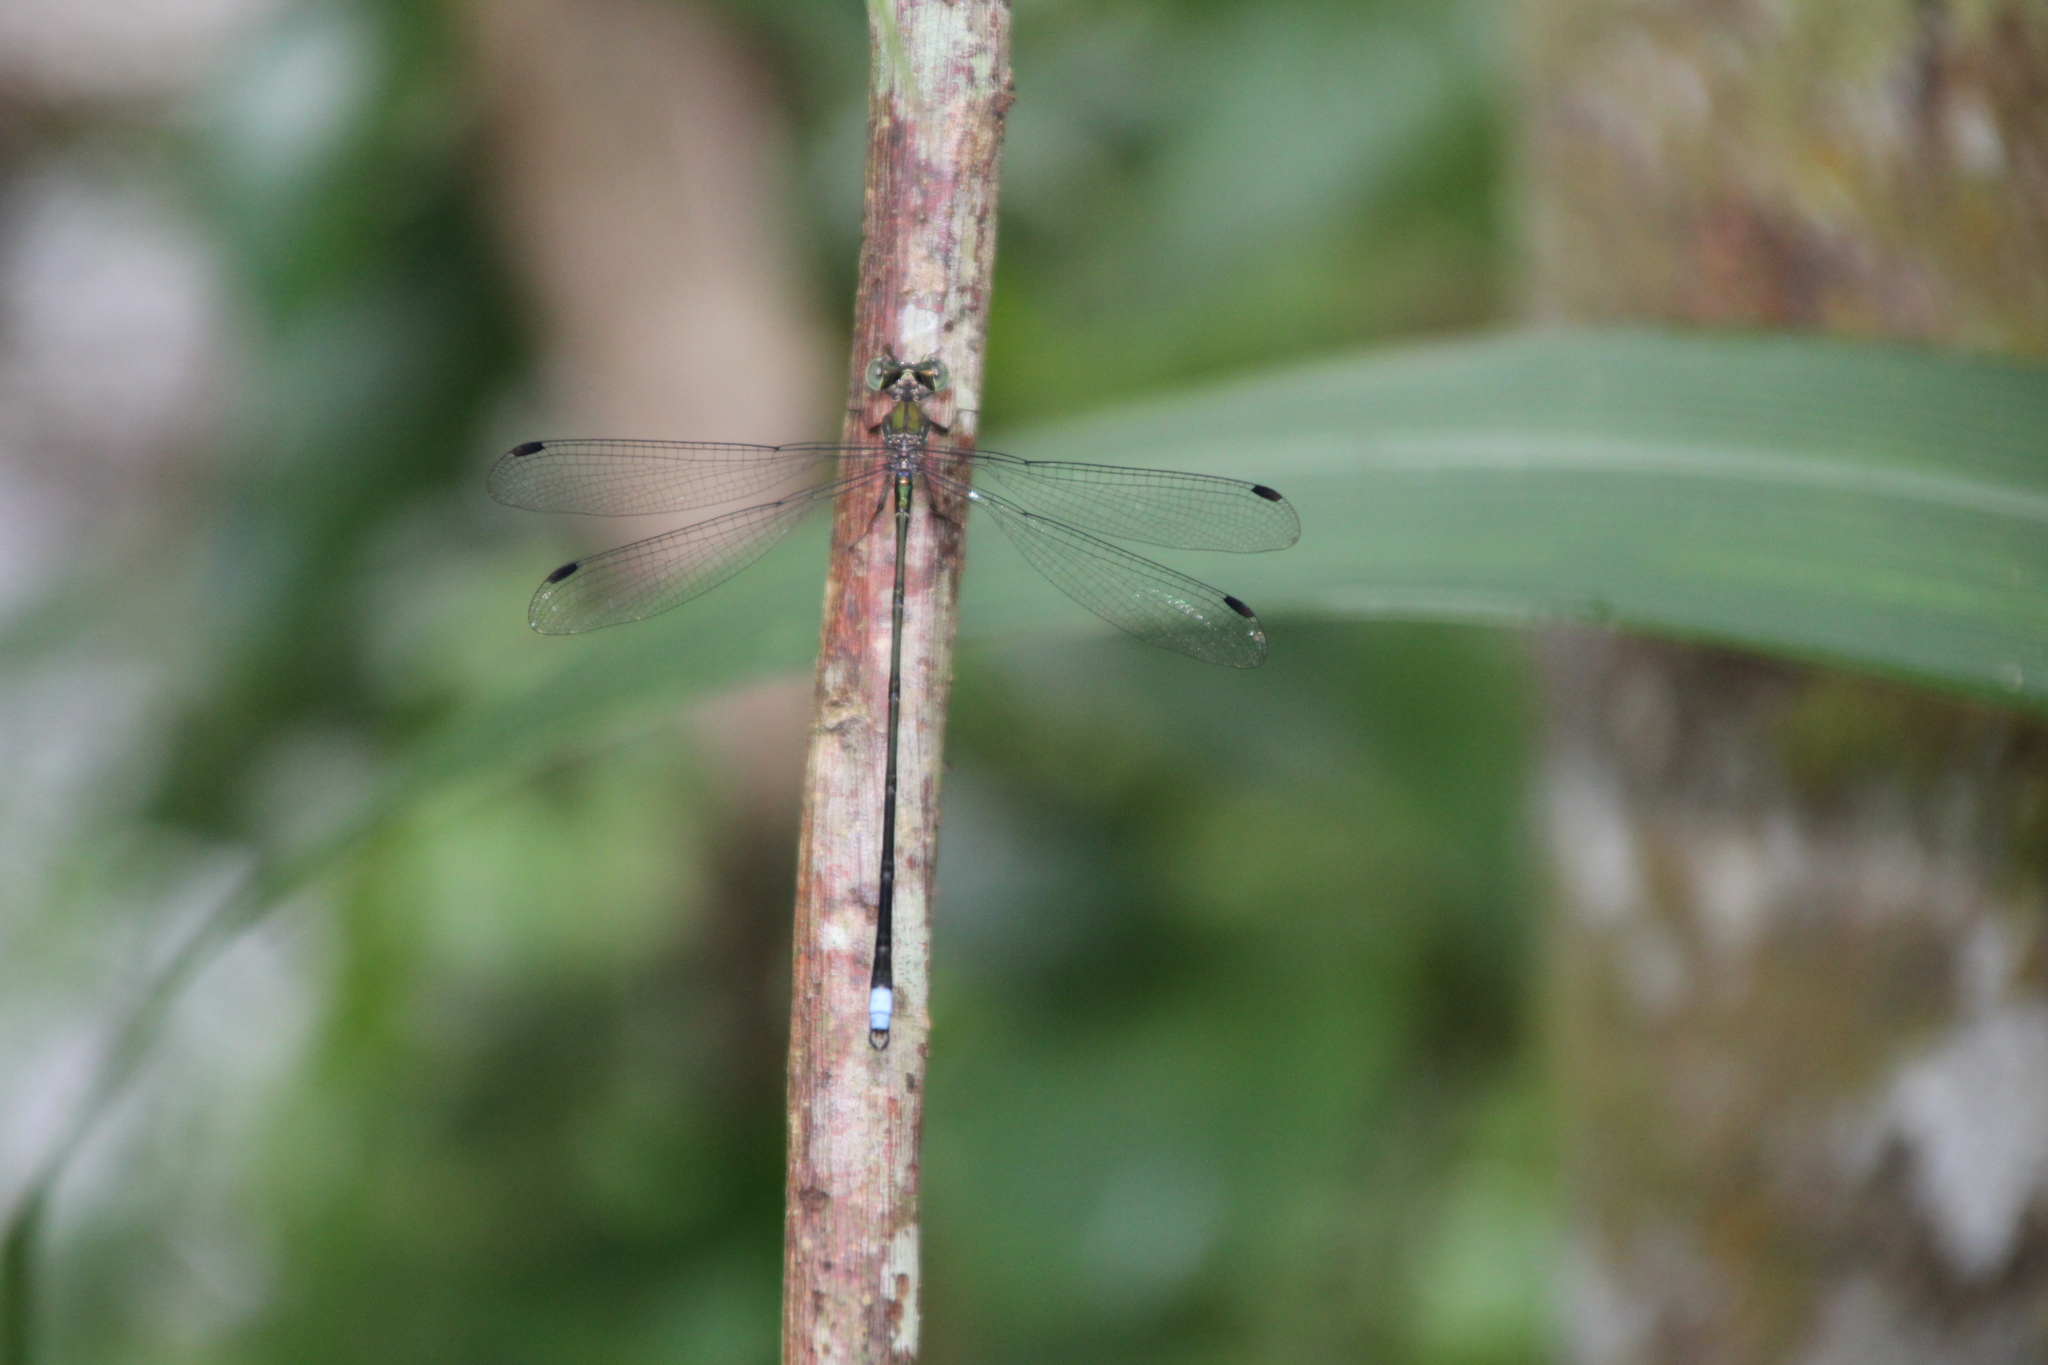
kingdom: Animalia
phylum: Arthropoda
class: Insecta
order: Odonata
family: Synlestidae
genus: Chlorolestes
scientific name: Chlorolestes tessellatus
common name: Forest malachite
